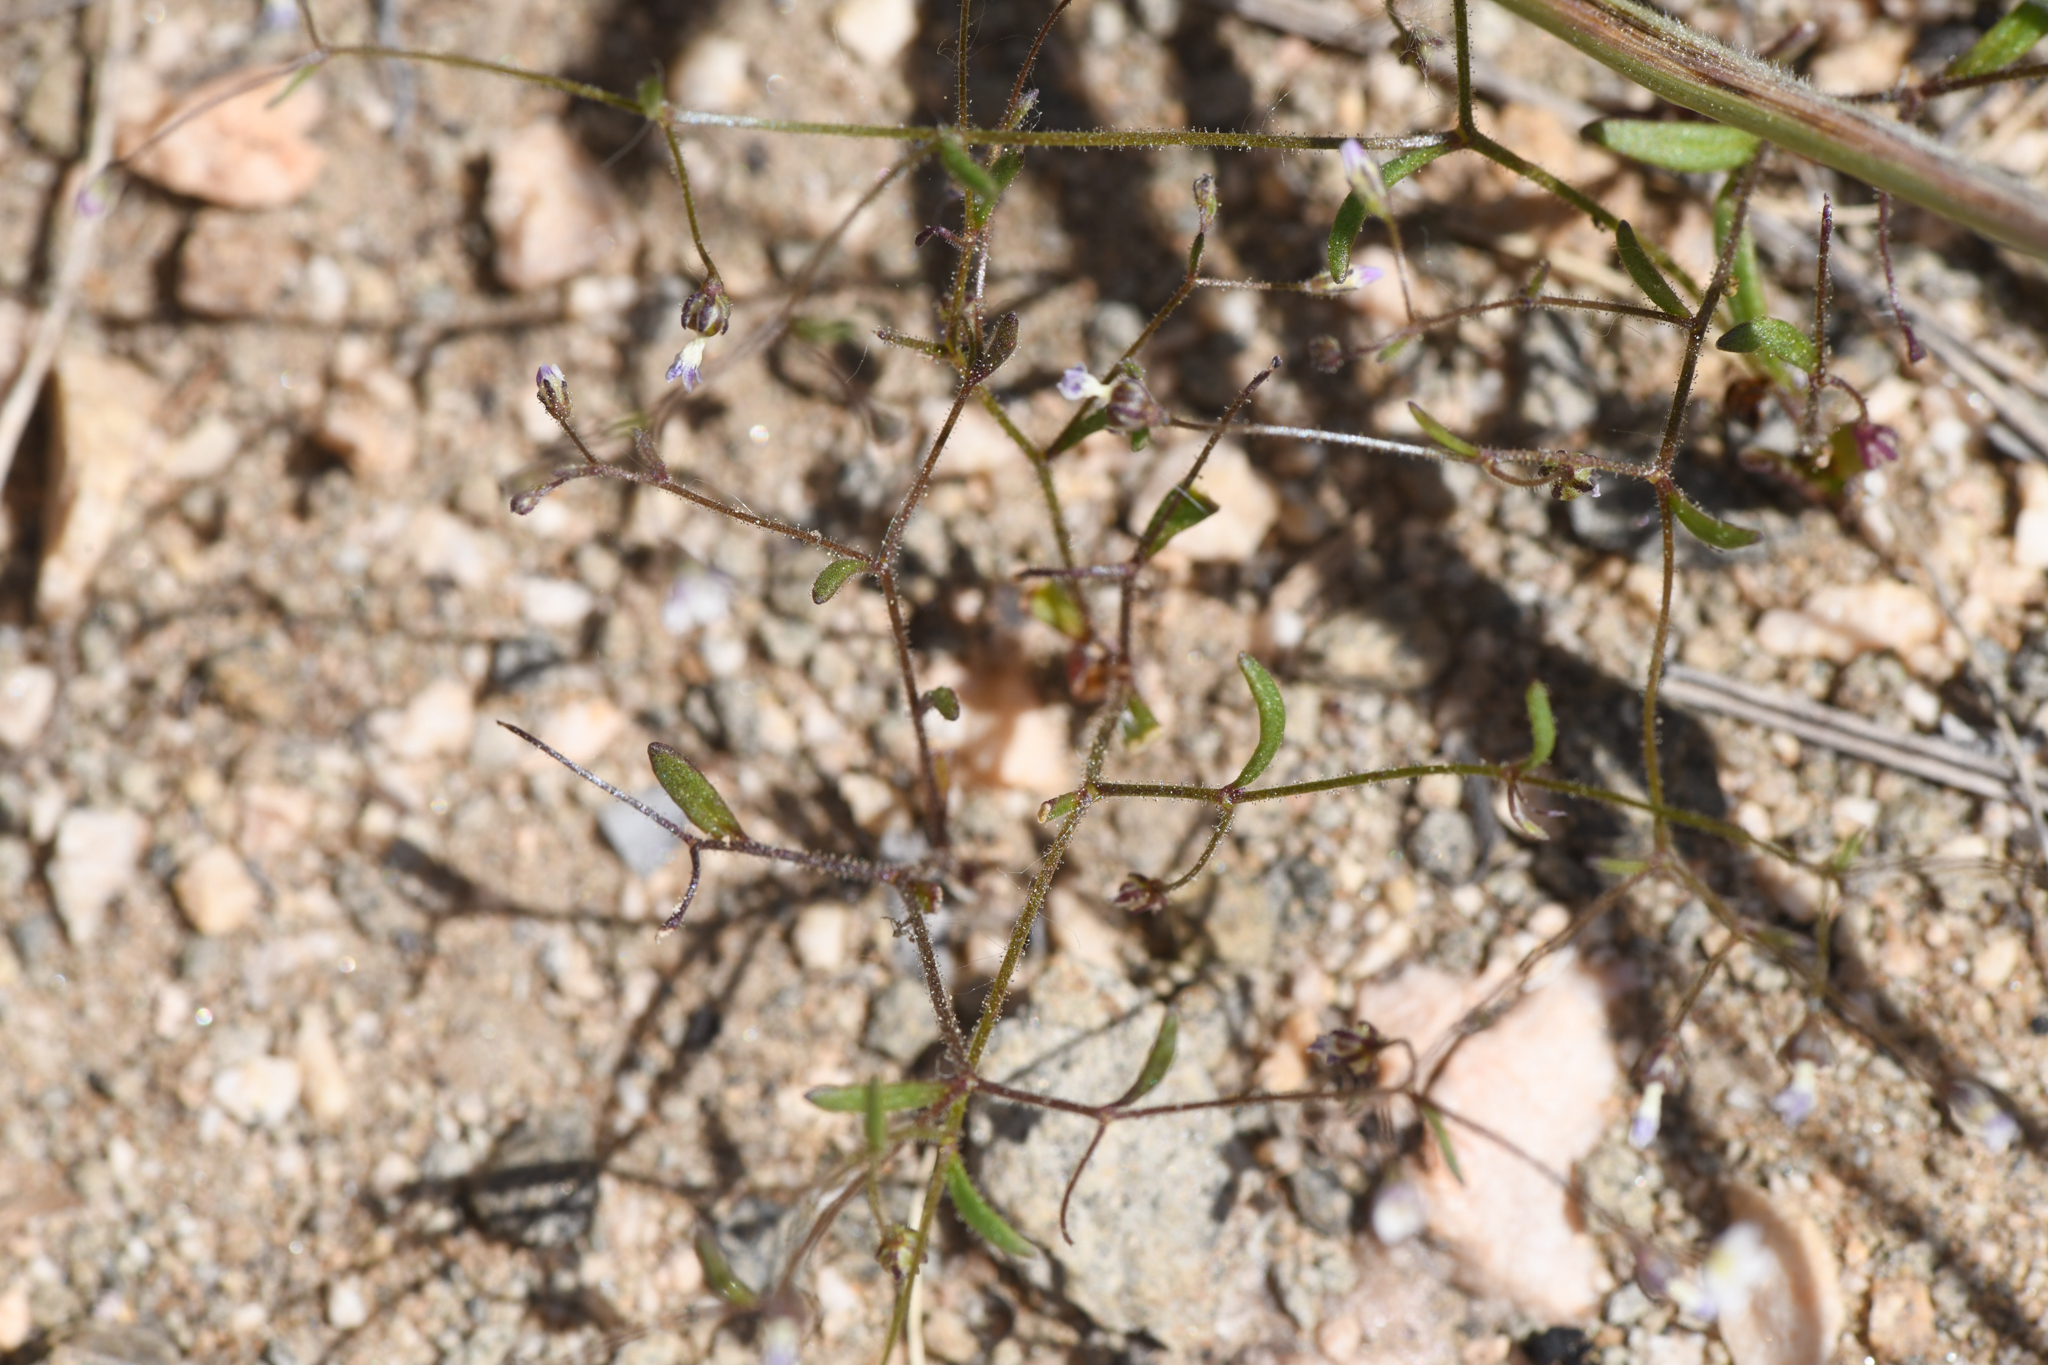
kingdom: Plantae
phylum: Tracheophyta
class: Magnoliopsida
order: Ericales
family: Polemoniaceae
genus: Lathrocasis
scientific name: Lathrocasis tenerrima
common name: Delicate gilia
